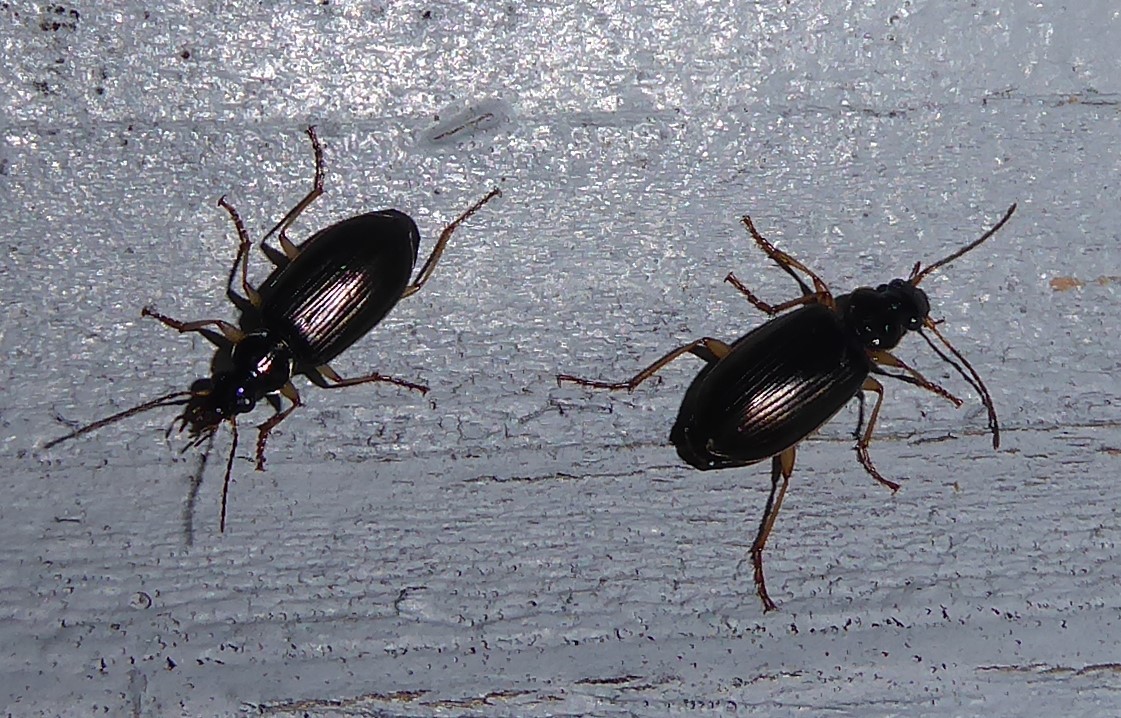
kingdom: Animalia
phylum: Arthropoda
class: Insecta
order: Coleoptera
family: Carabidae
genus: Notagonum
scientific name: Notagonum submetallicum
